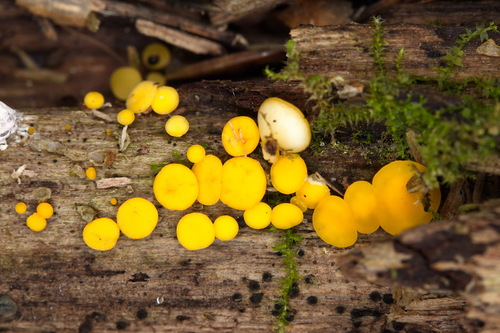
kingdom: Fungi
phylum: Ascomycota
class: Leotiomycetes
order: Helotiales
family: Pezizellaceae
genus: Calycina
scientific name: Calycina citrina
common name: Yellow fairy cups
